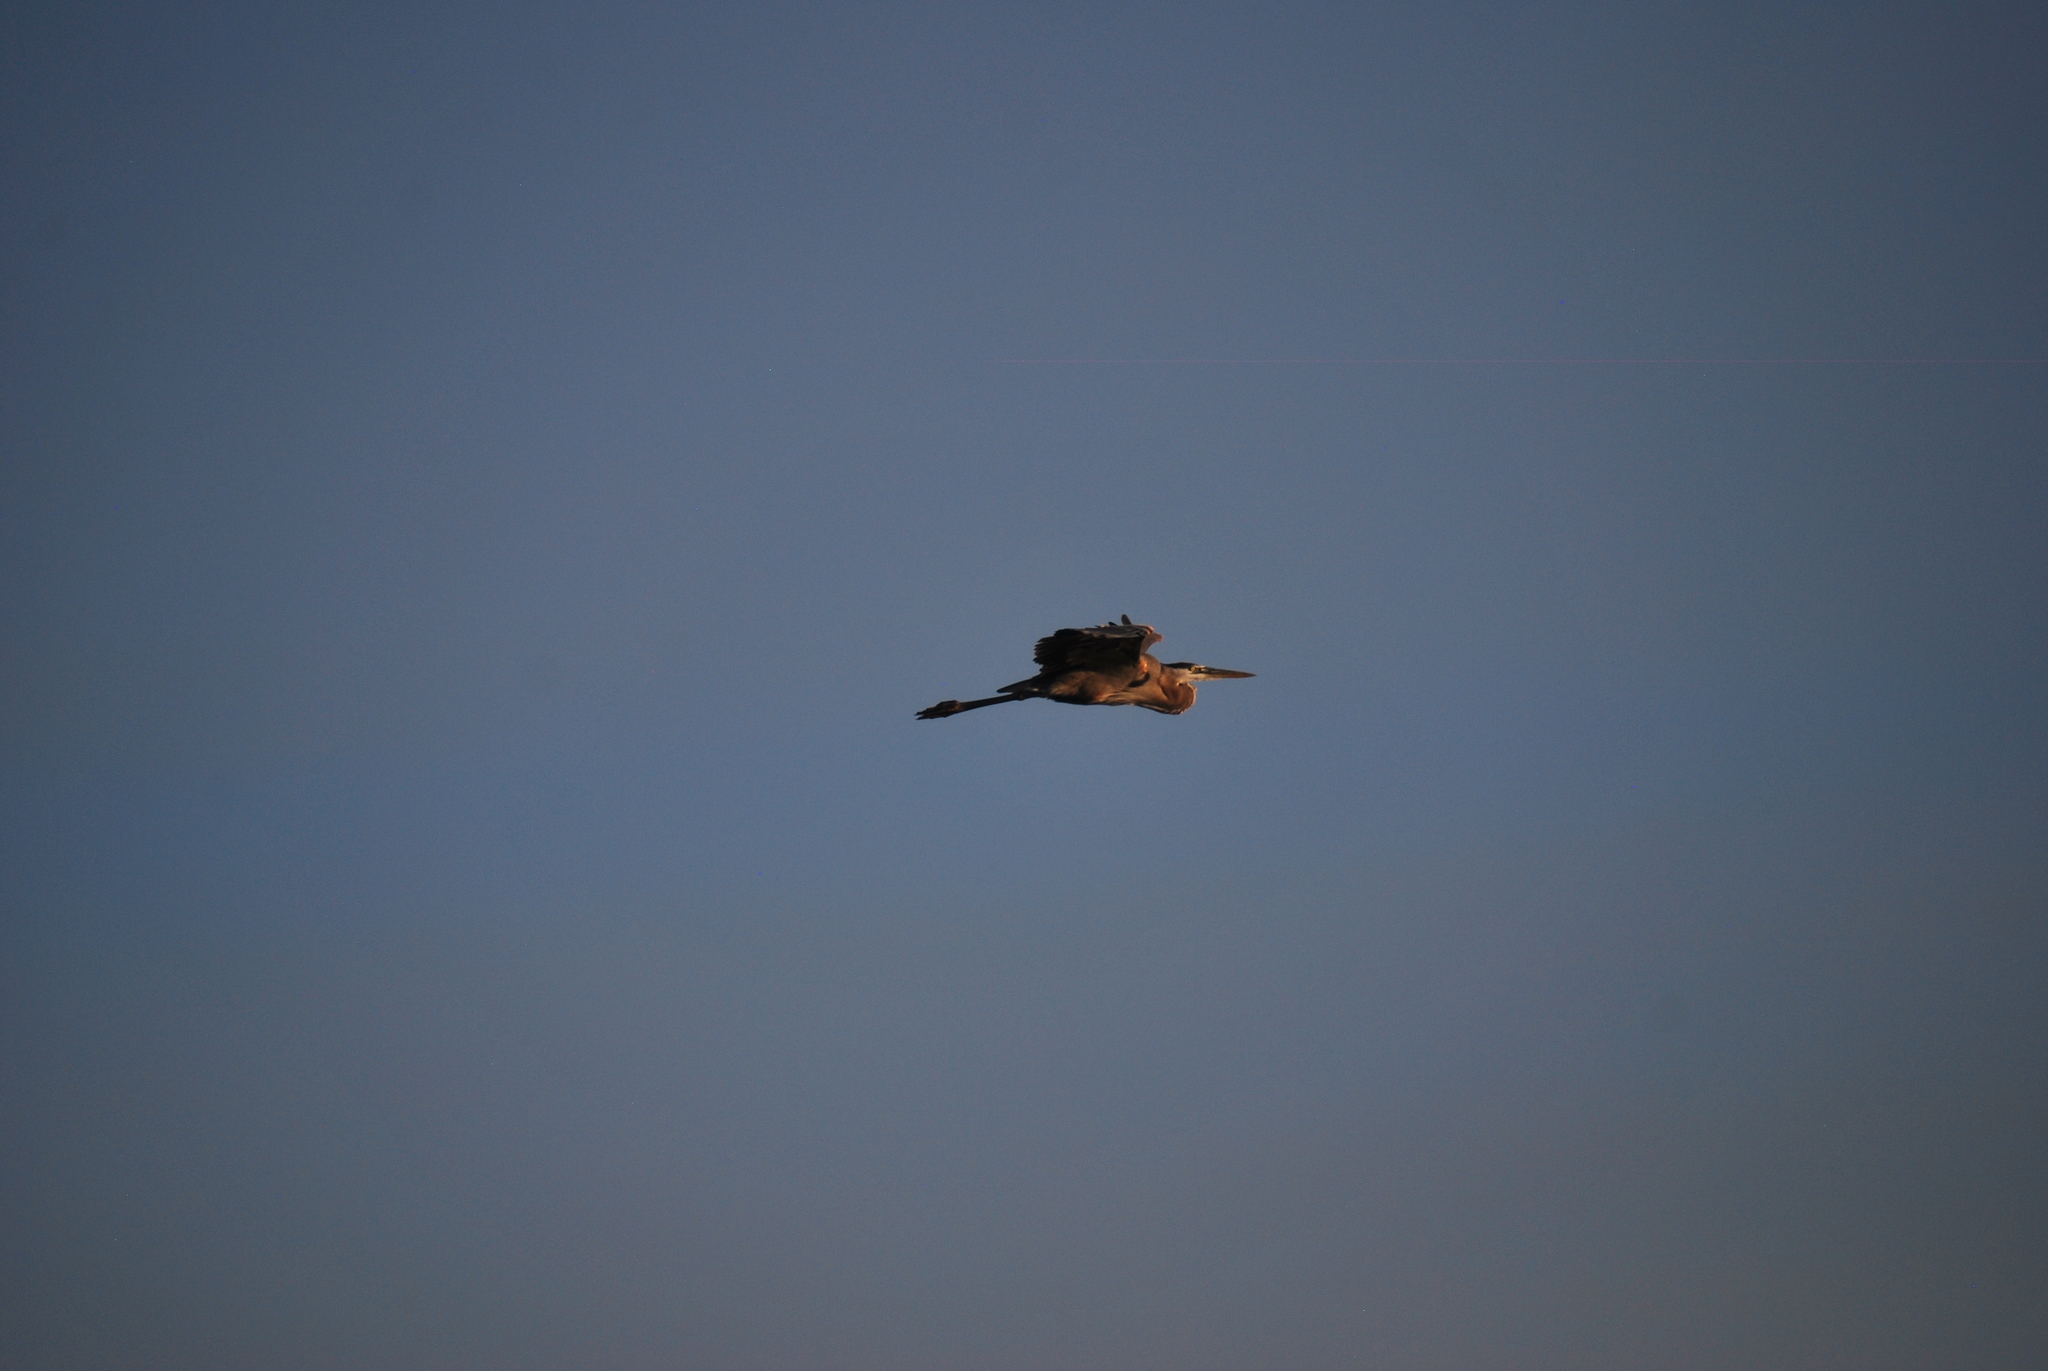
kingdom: Animalia
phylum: Chordata
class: Aves
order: Pelecaniformes
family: Ardeidae
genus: Ardea
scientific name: Ardea herodias
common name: Great blue heron
